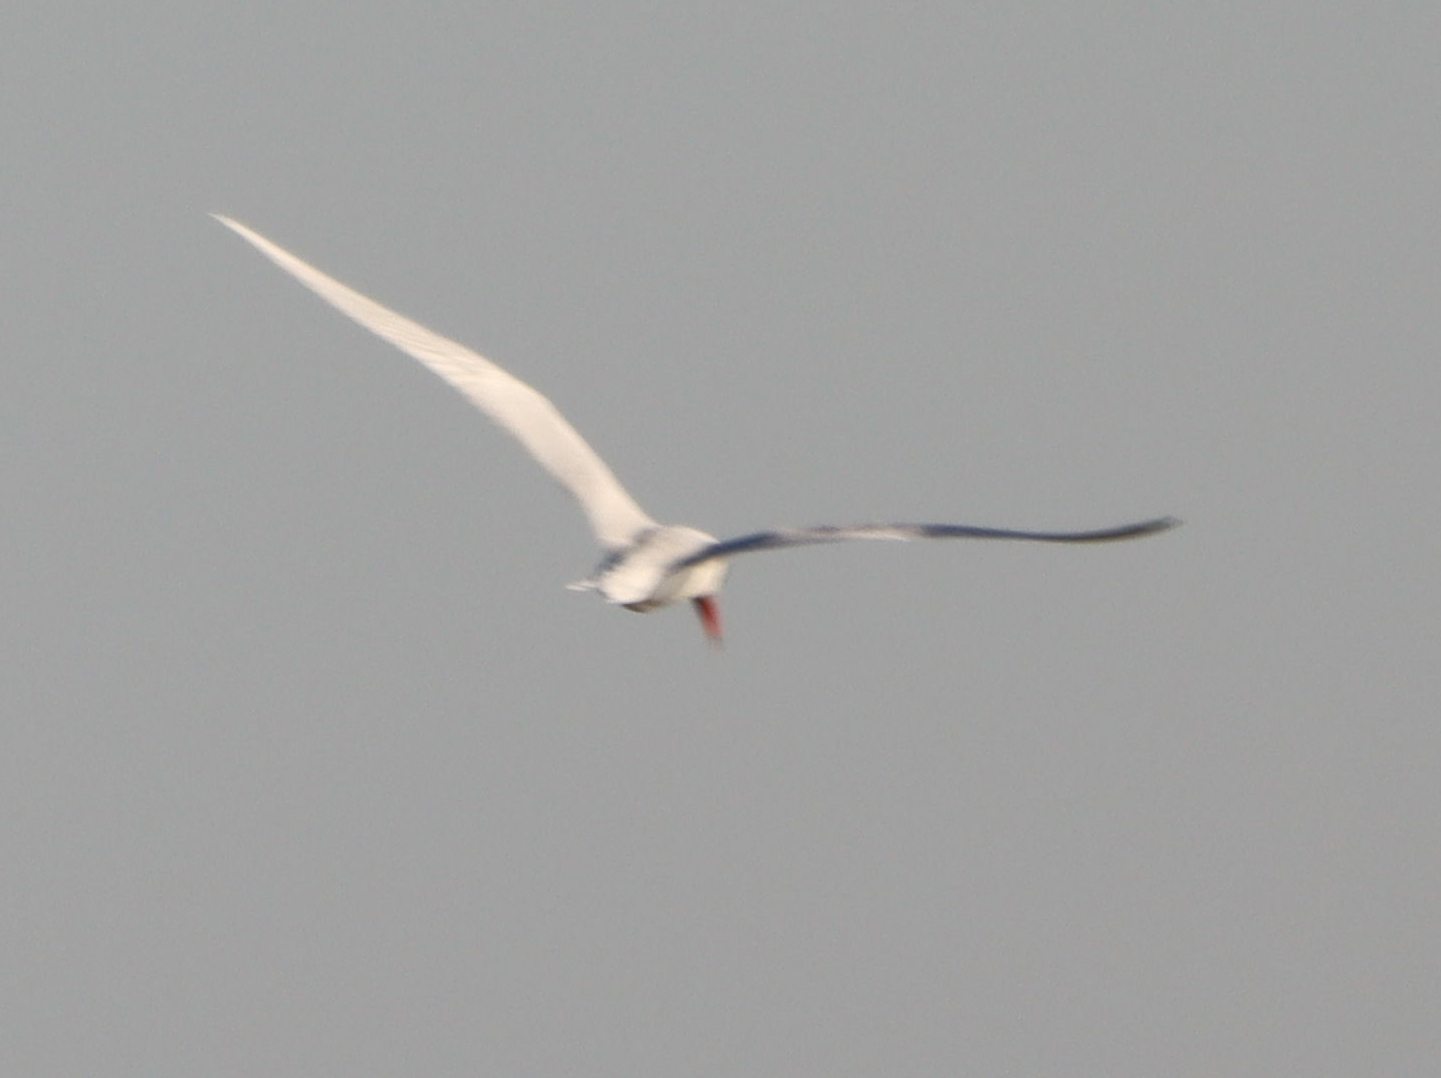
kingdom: Animalia
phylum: Chordata
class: Aves
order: Charadriiformes
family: Laridae
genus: Hydroprogne
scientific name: Hydroprogne caspia
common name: Caspian tern
